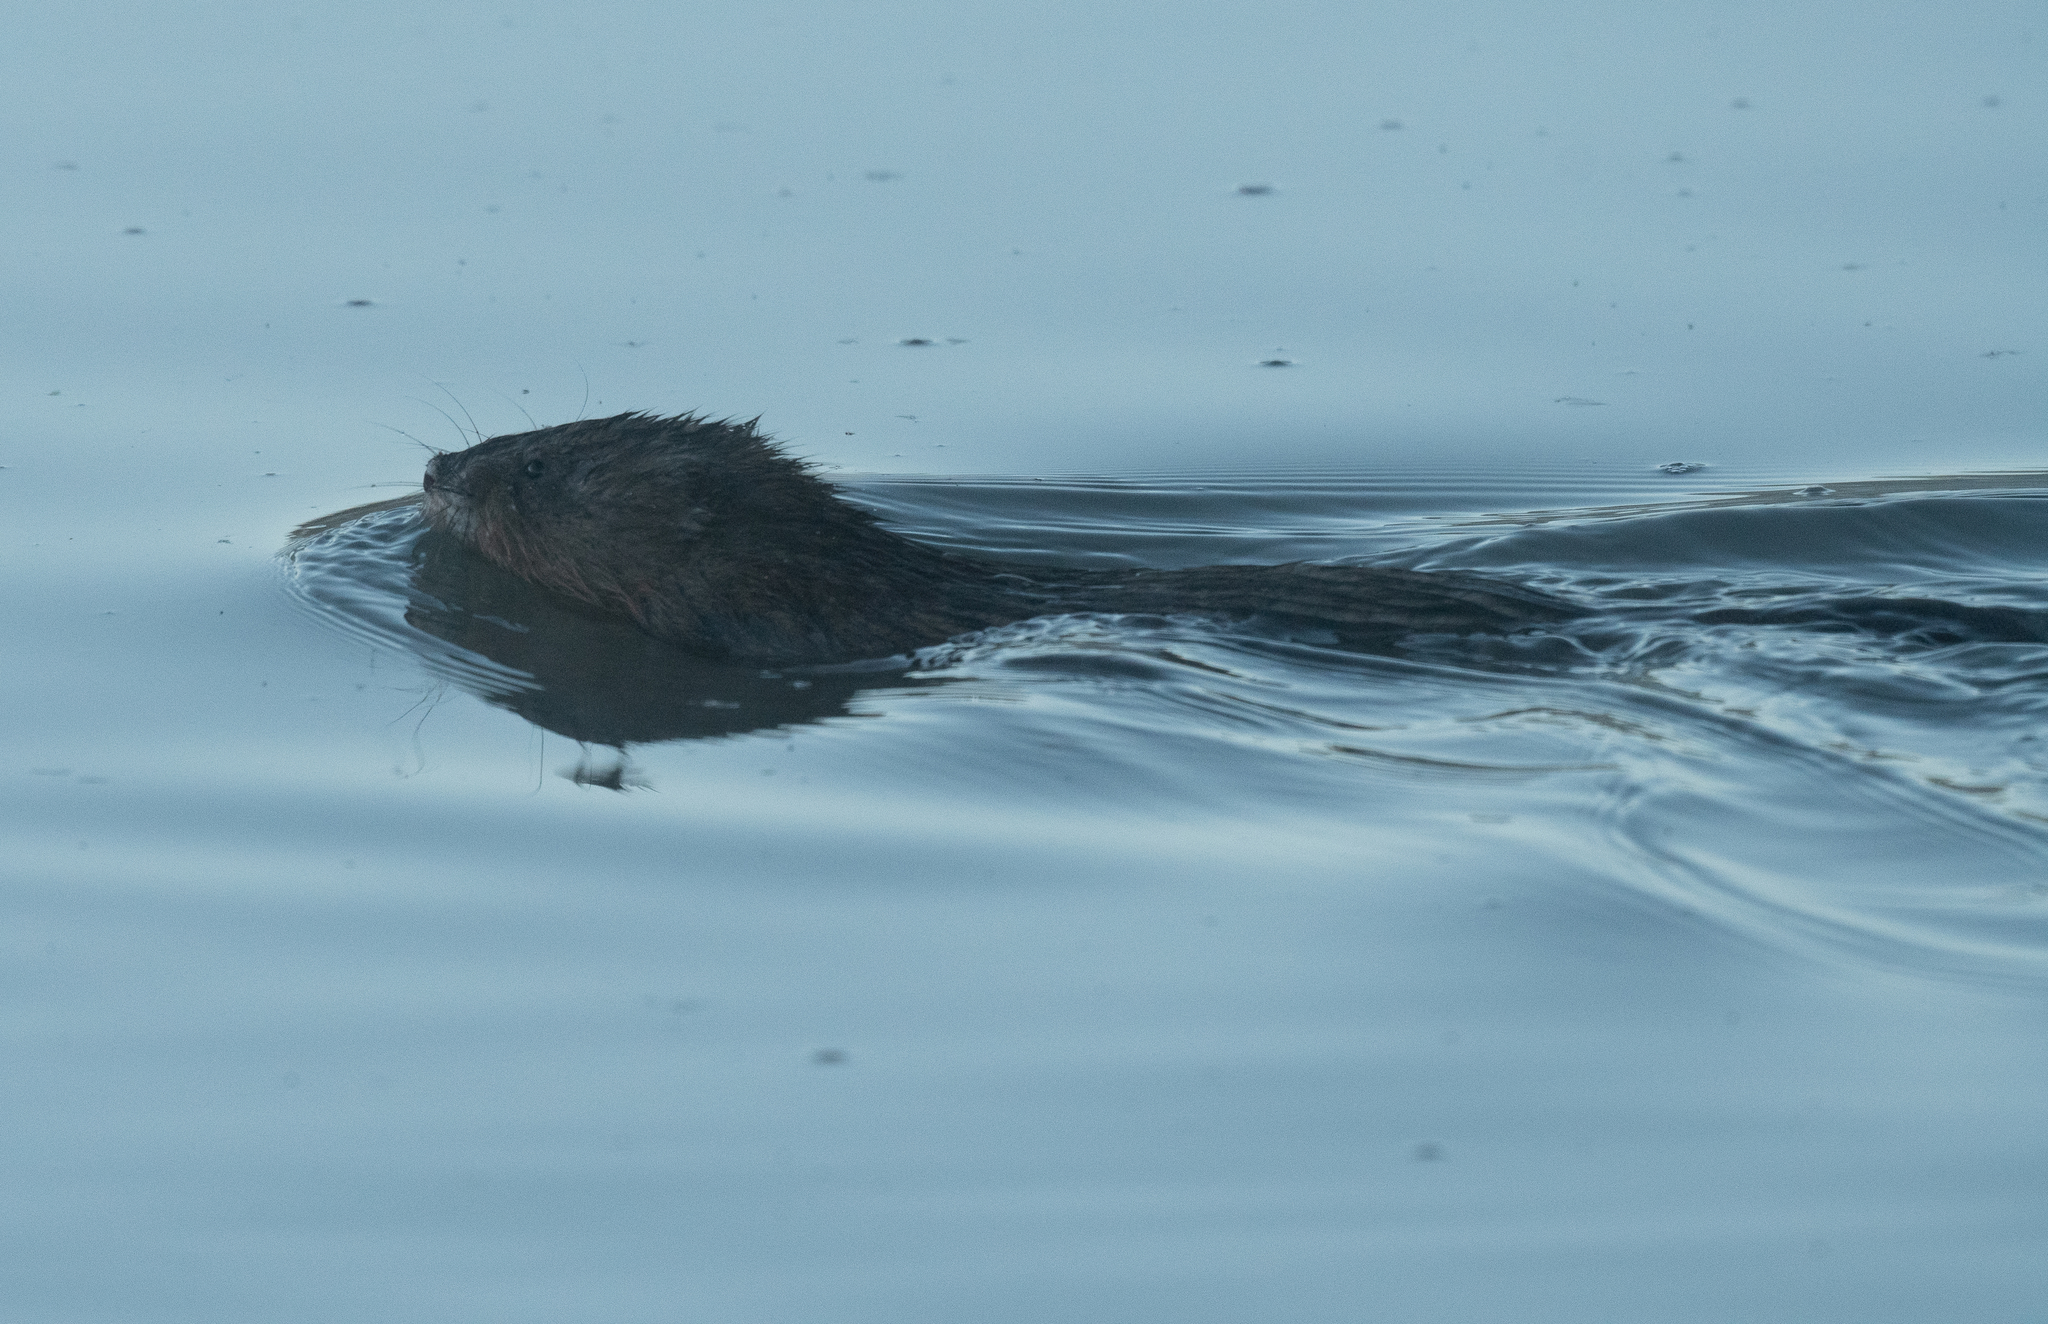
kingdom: Animalia
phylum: Chordata
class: Mammalia
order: Rodentia
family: Cricetidae
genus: Ondatra
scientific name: Ondatra zibethicus
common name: Muskrat
